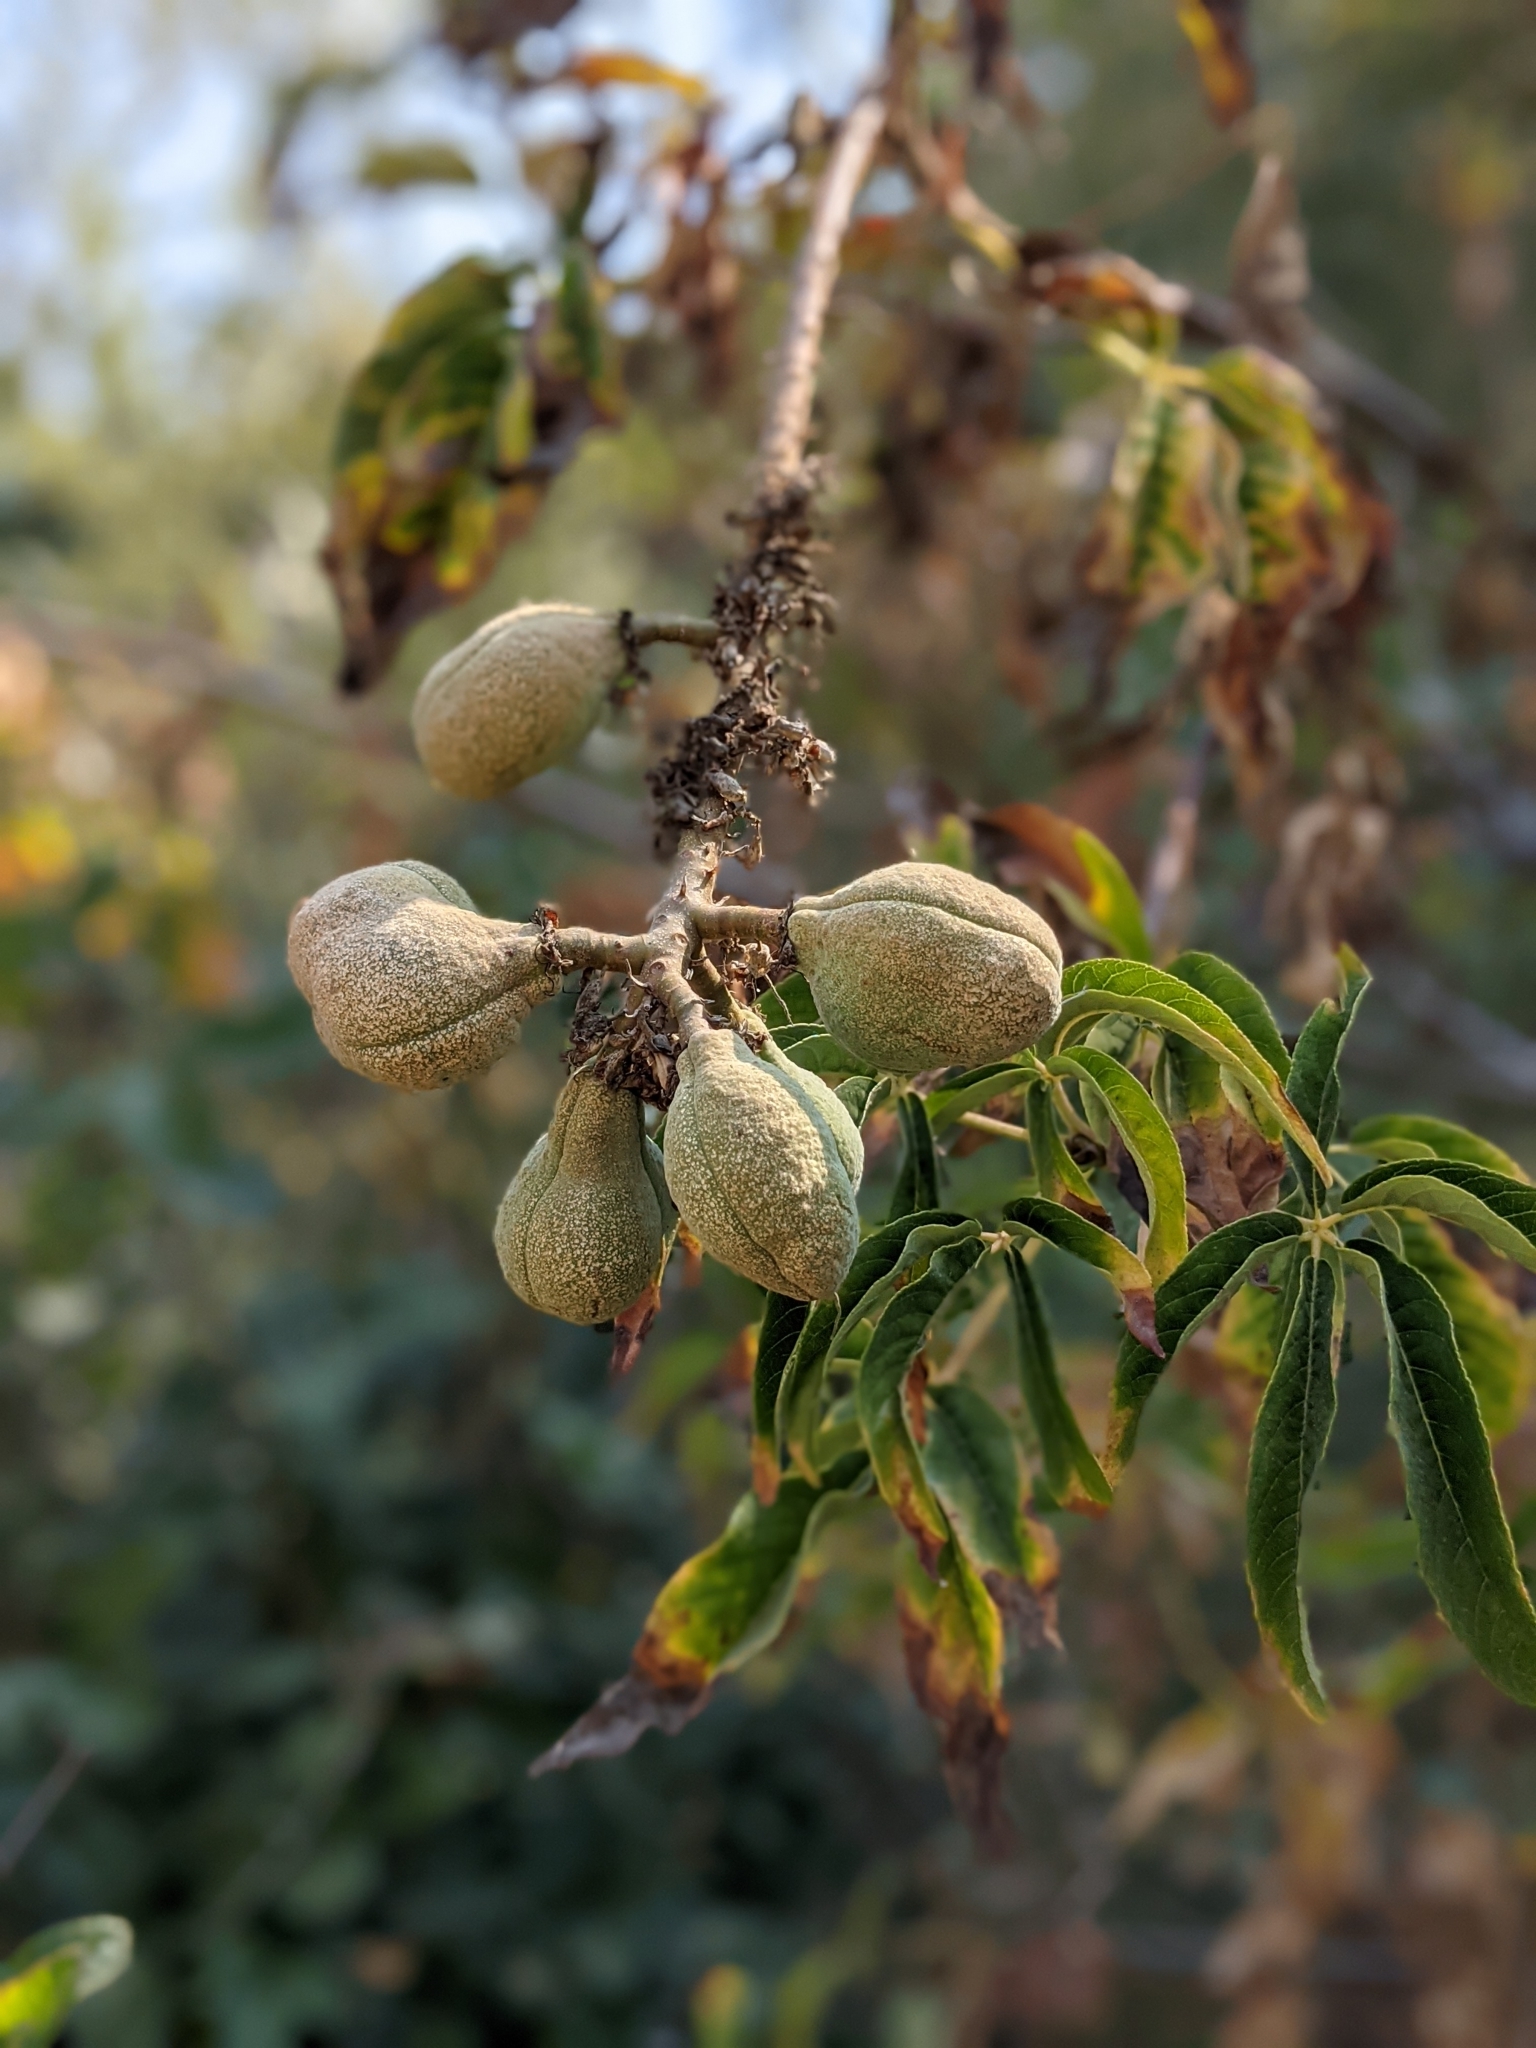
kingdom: Plantae
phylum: Tracheophyta
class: Magnoliopsida
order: Sapindales
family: Sapindaceae
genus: Aesculus
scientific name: Aesculus californica
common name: California buckeye
